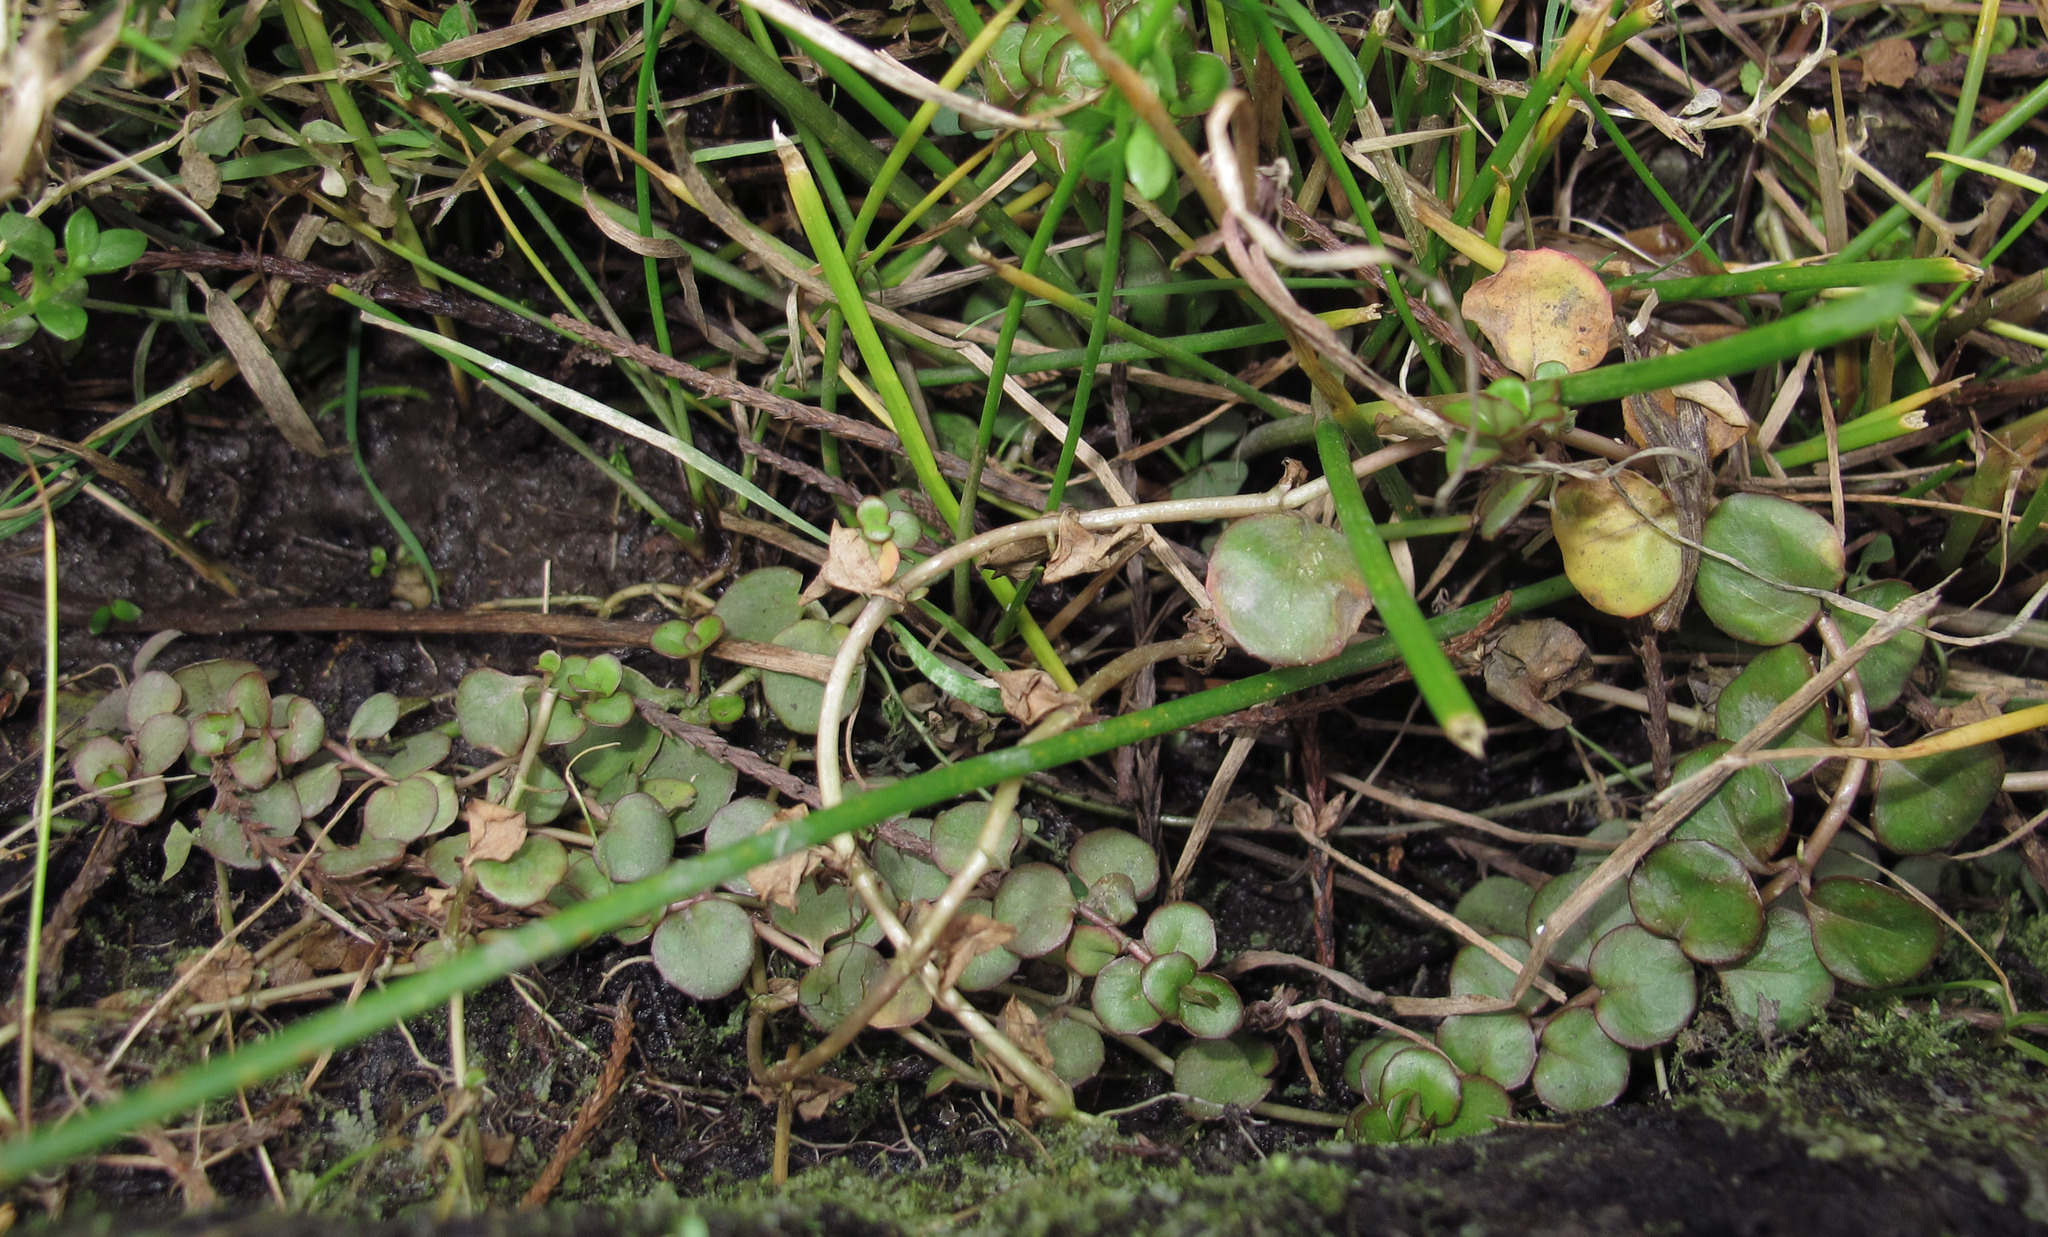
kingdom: Plantae
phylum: Tracheophyta
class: Magnoliopsida
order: Myrtales
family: Onagraceae
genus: Epilobium
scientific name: Epilobium brunnescens
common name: New zealand willowherb
